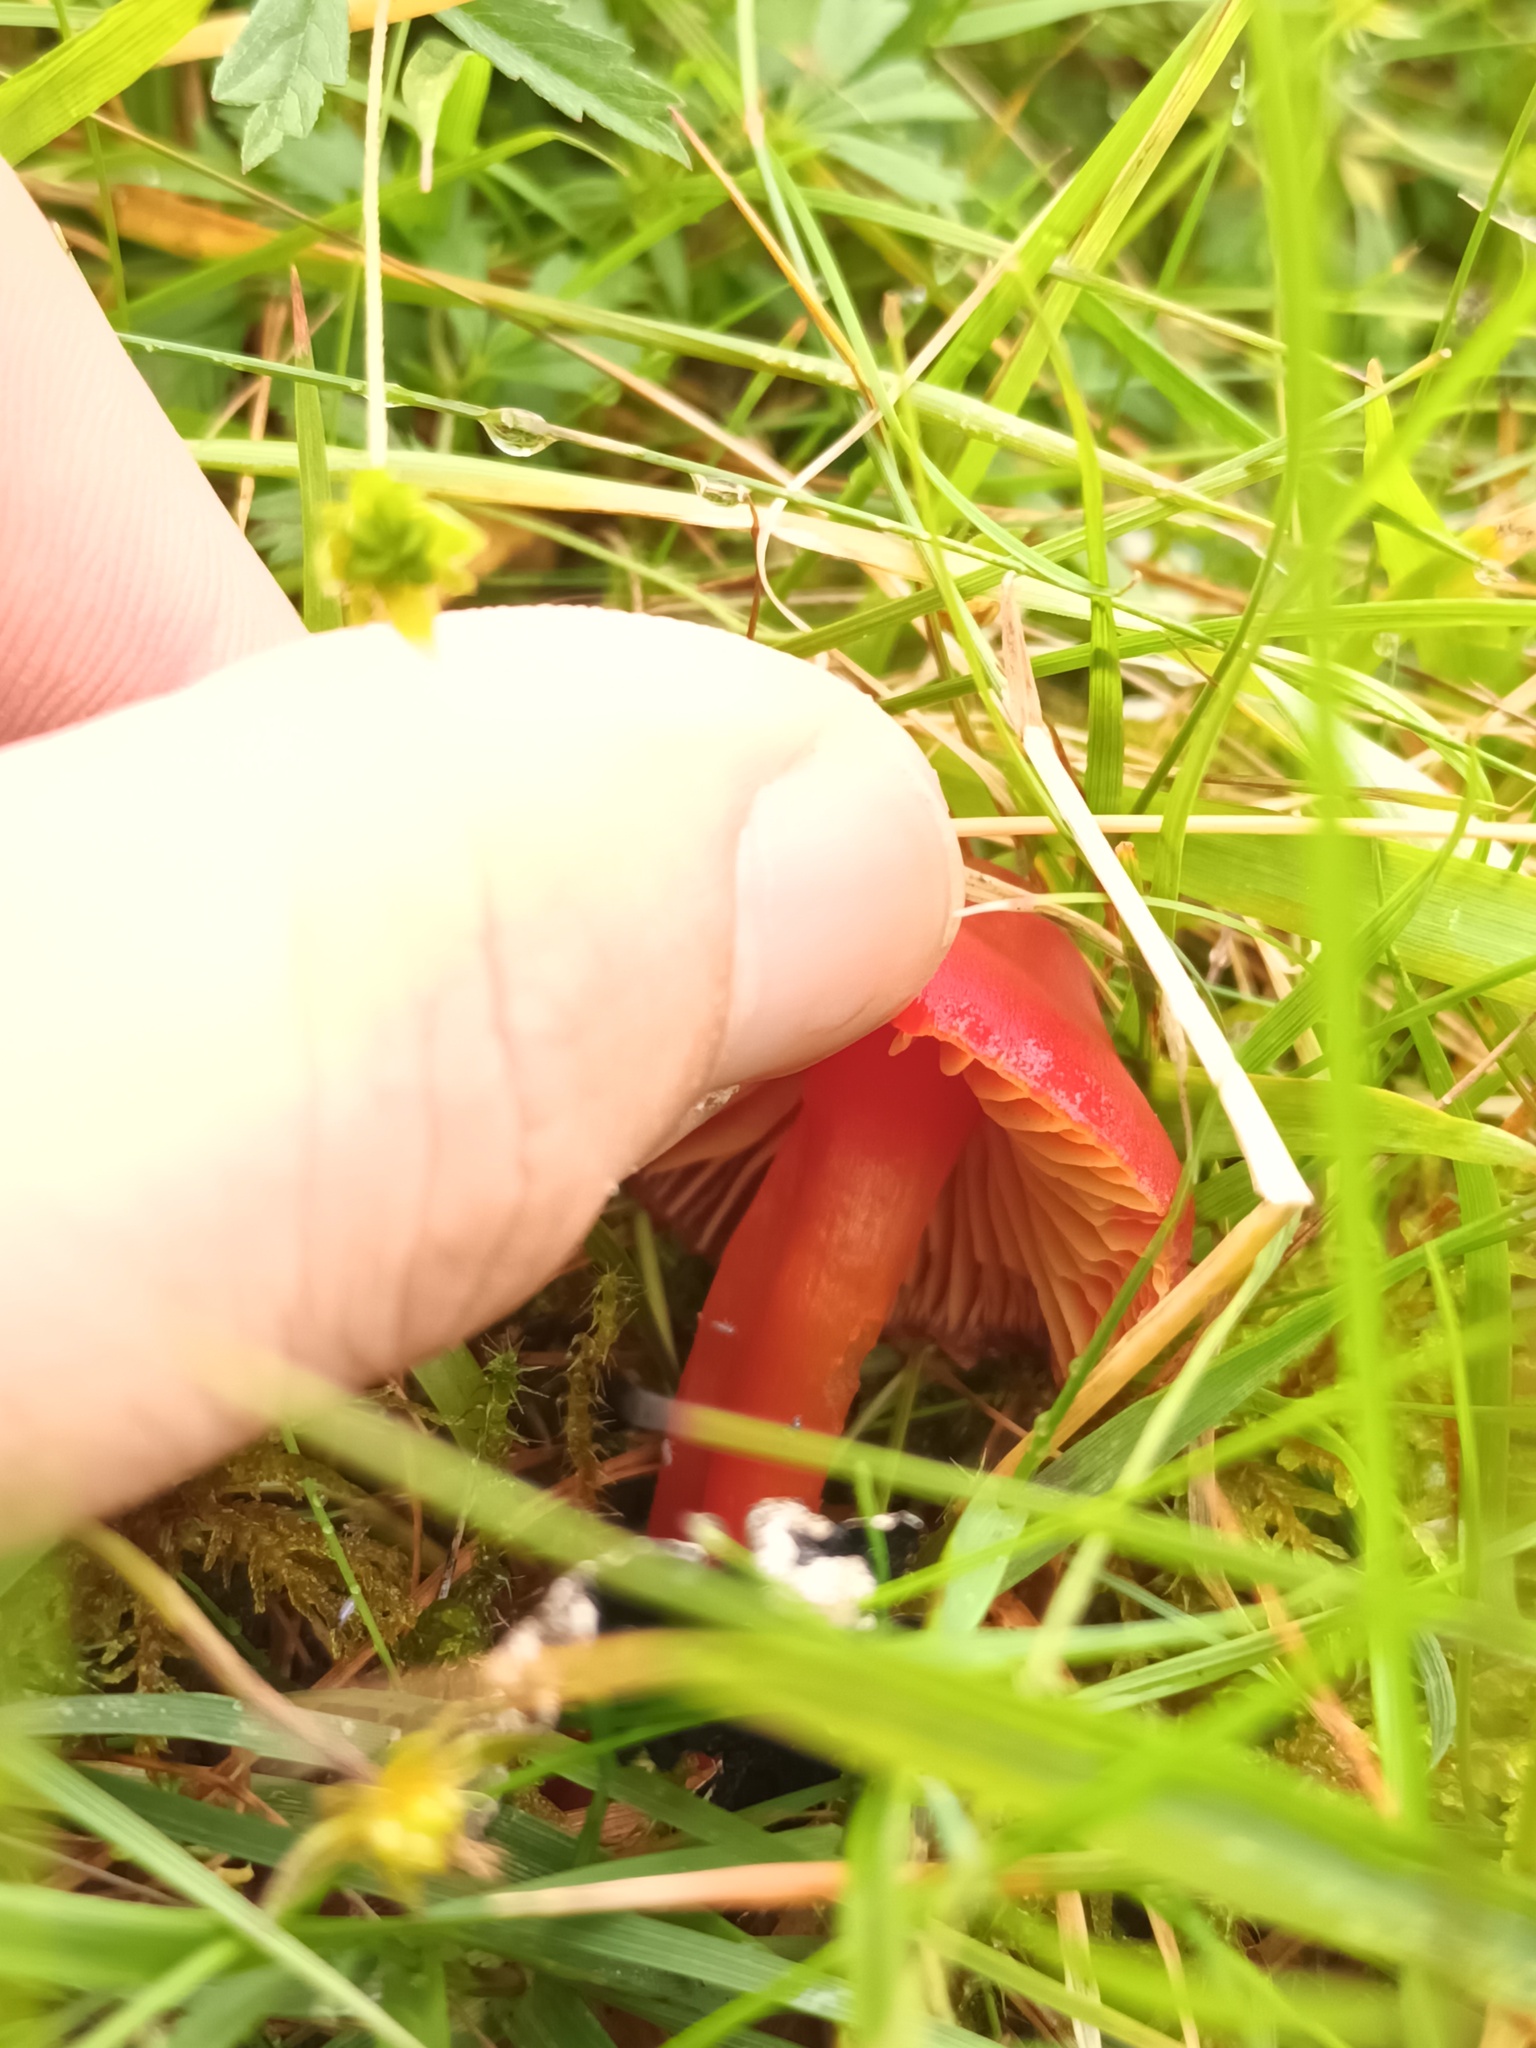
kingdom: Fungi
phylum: Basidiomycota
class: Agaricomycetes
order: Agaricales
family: Hygrophoraceae
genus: Hygrocybe
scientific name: Hygrocybe coccinea
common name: Scarlet hood
